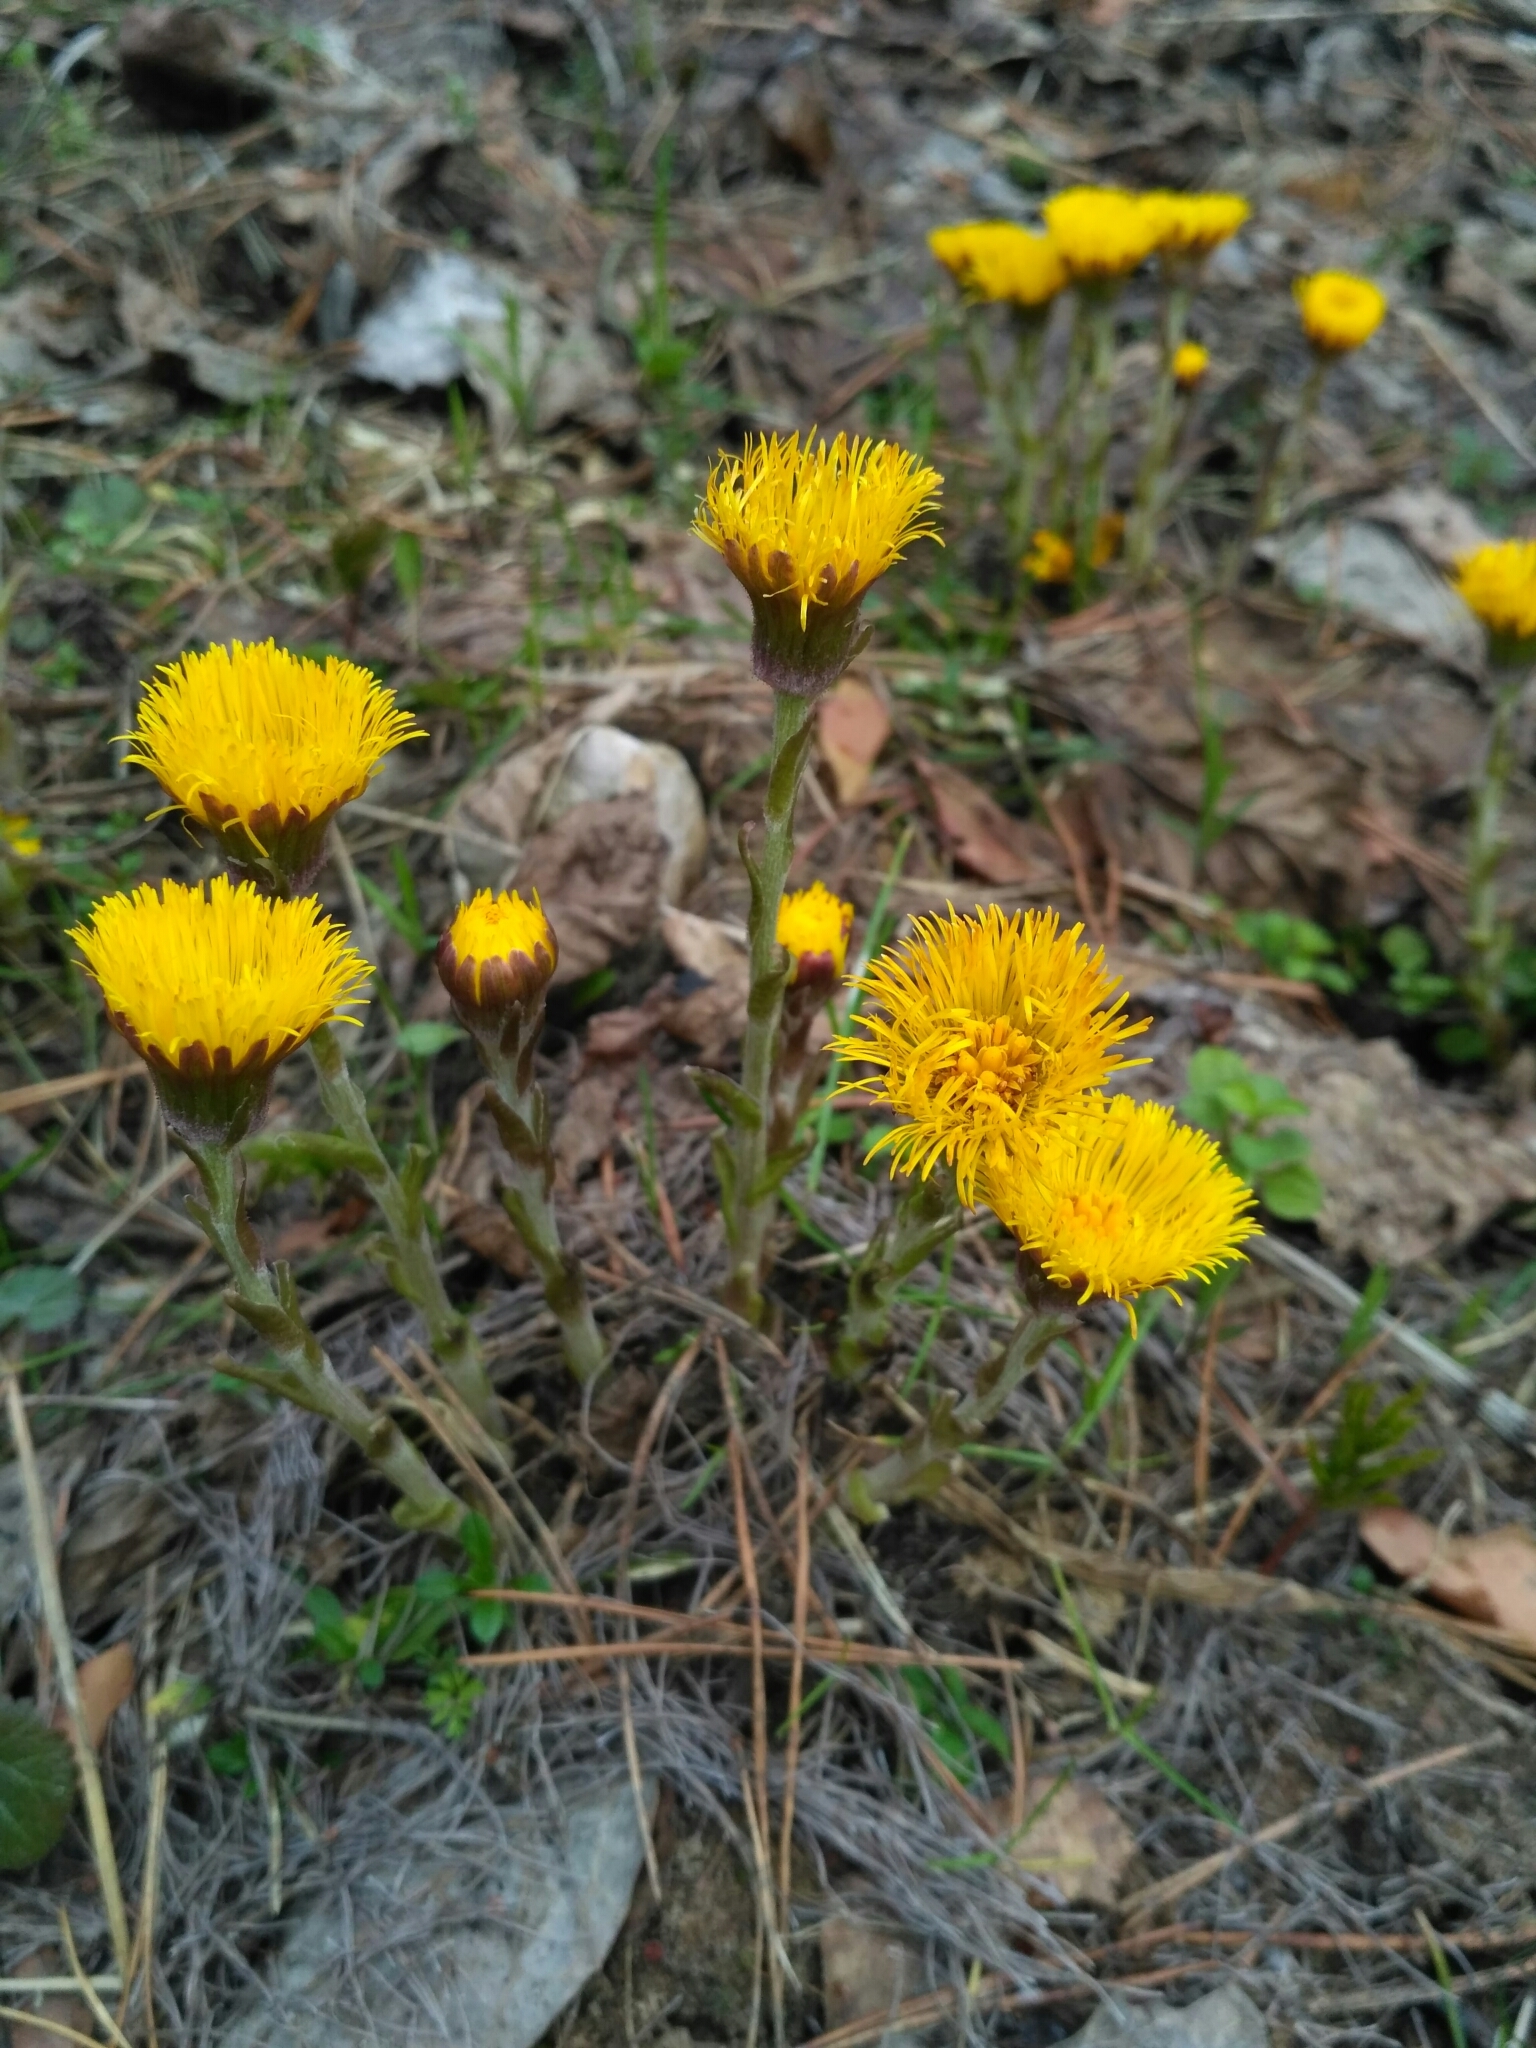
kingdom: Plantae
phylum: Tracheophyta
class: Magnoliopsida
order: Asterales
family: Asteraceae
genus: Tussilago
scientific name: Tussilago farfara
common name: Coltsfoot
